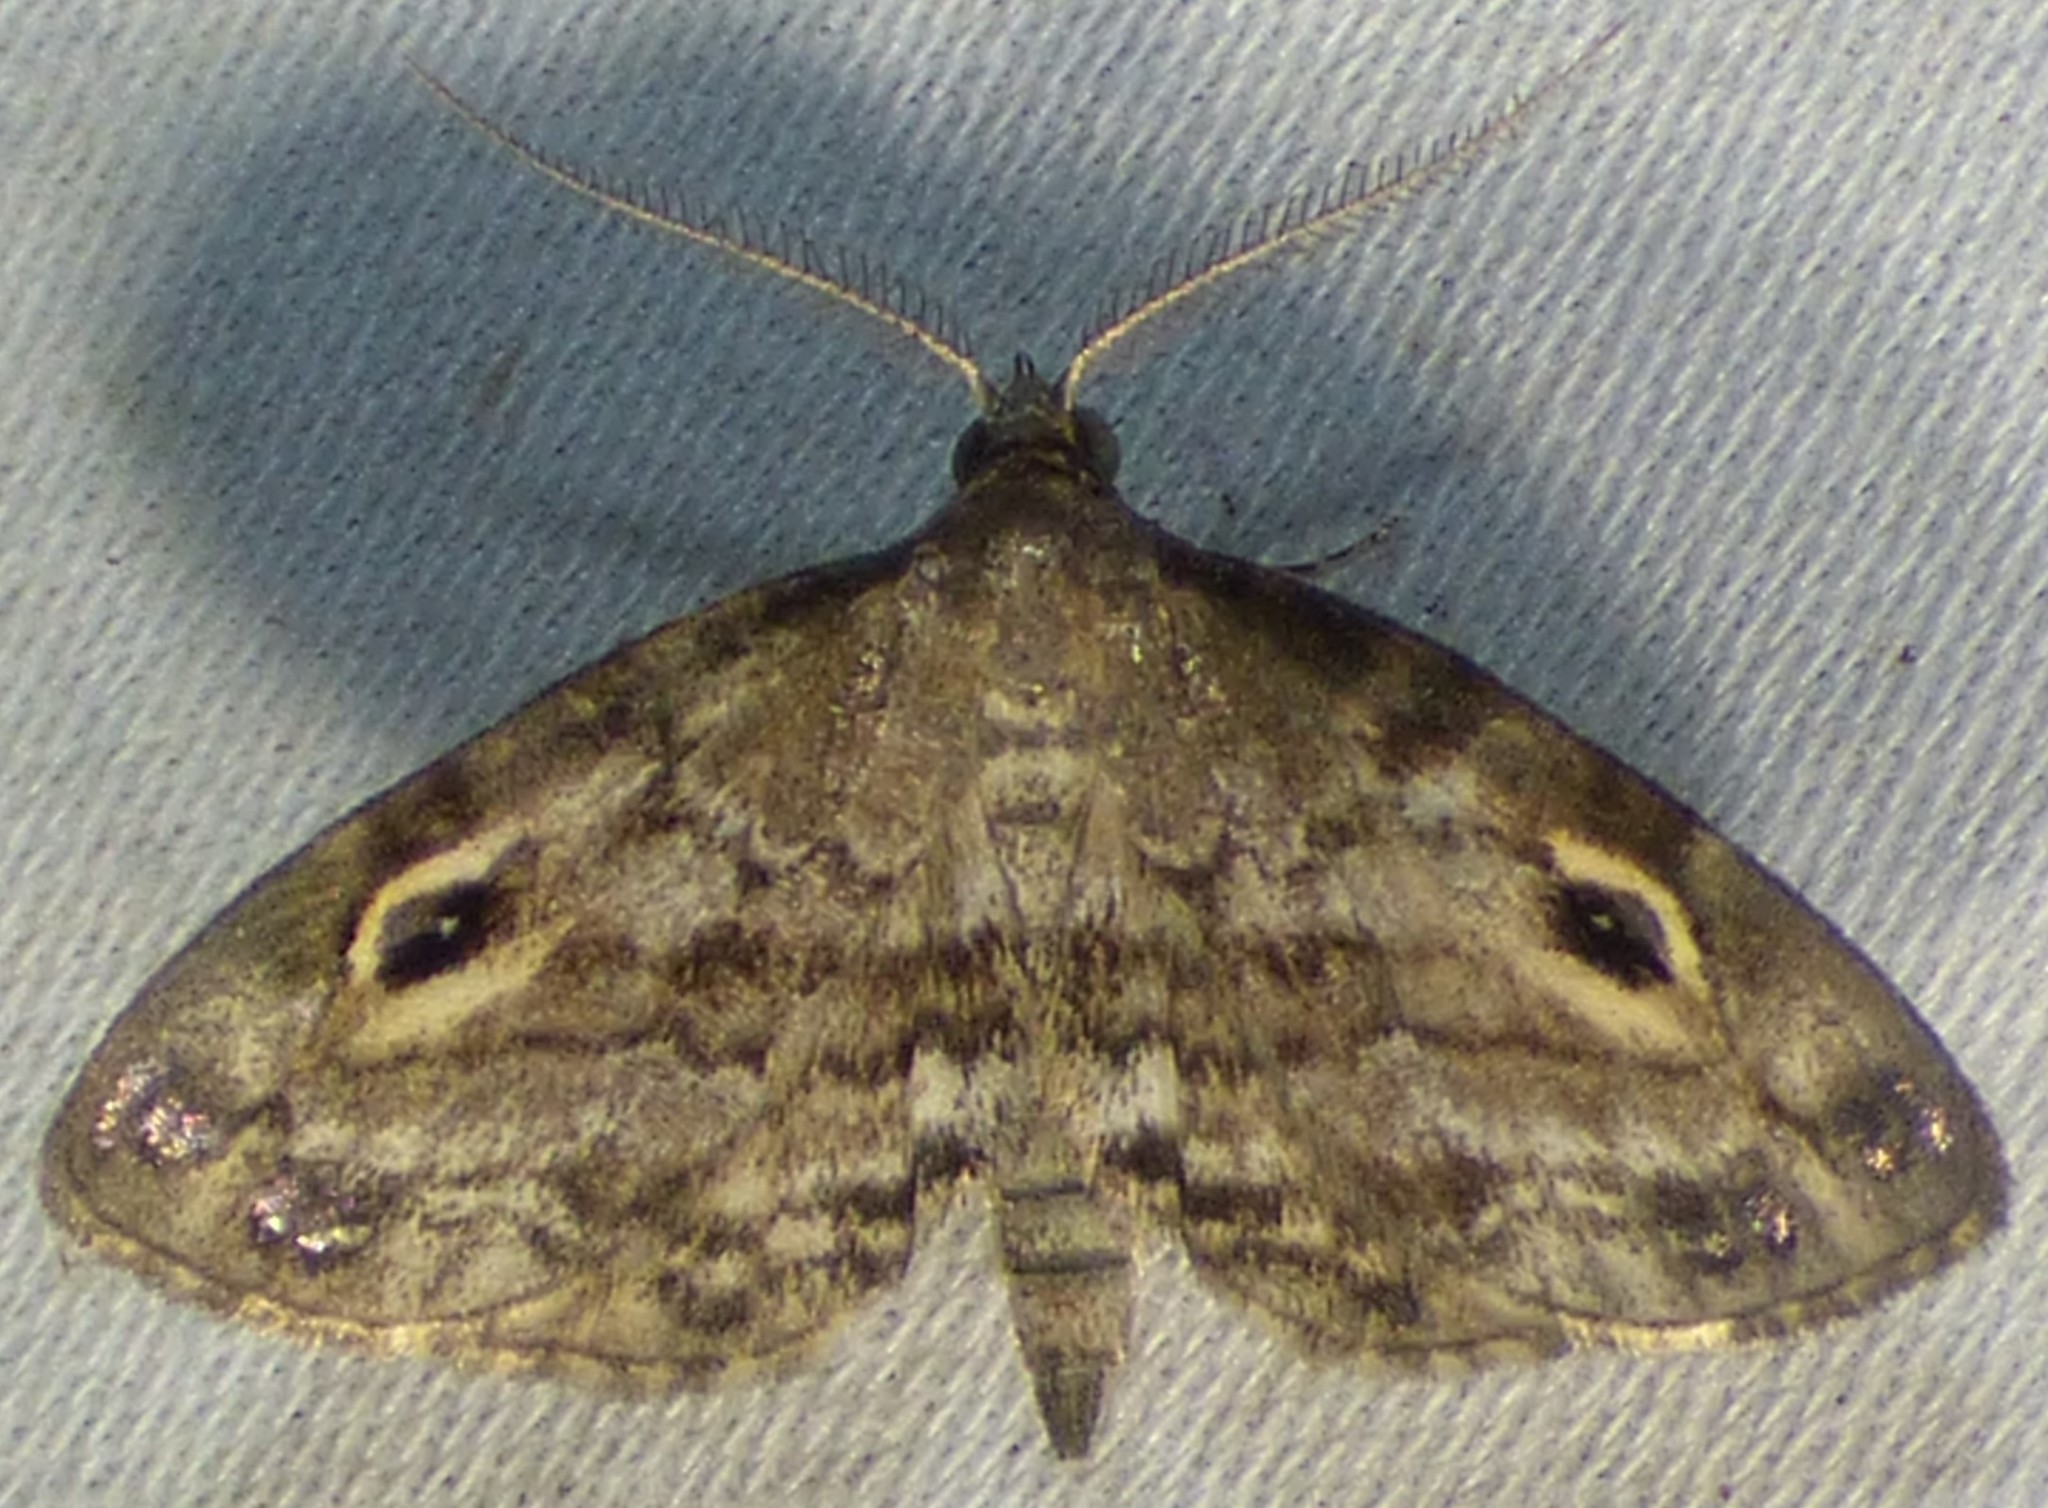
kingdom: Animalia
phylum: Arthropoda
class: Insecta
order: Lepidoptera
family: Erebidae
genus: Melanomma
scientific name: Melanomma auricinctaria
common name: Gold-lined melanomma moth
